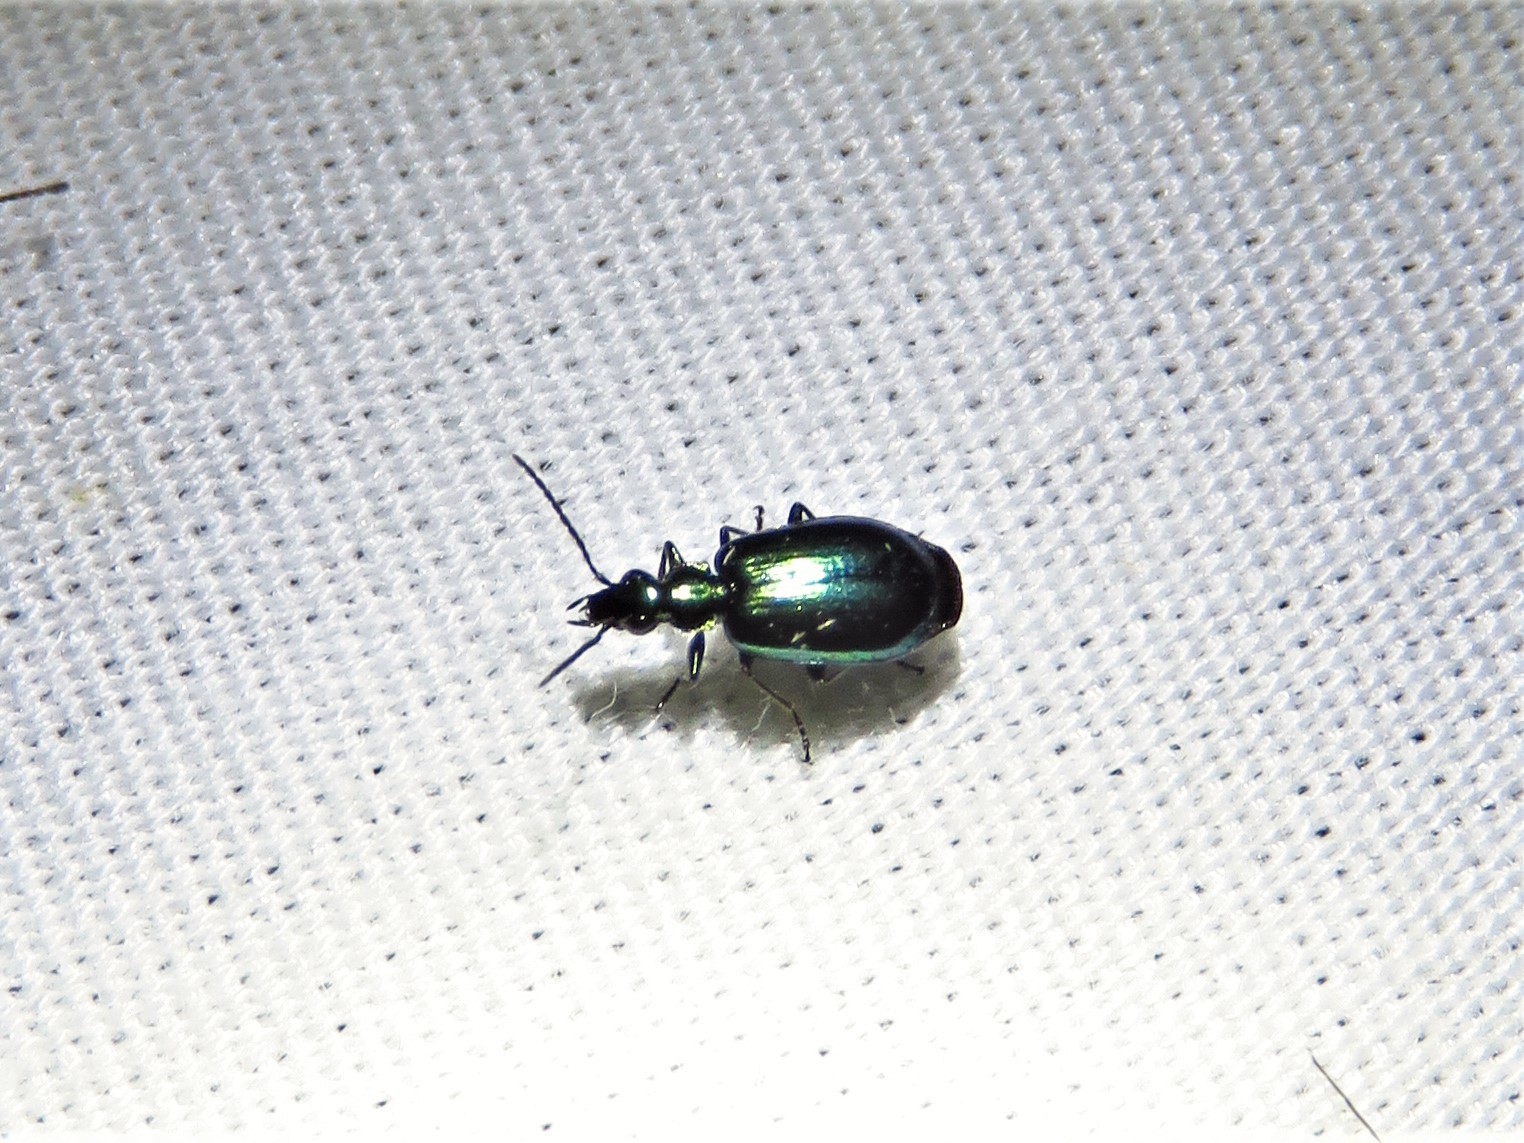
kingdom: Animalia
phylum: Arthropoda
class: Insecta
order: Coleoptera
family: Carabidae
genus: Lebia
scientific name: Lebia viridis
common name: Flower lebia beetle
